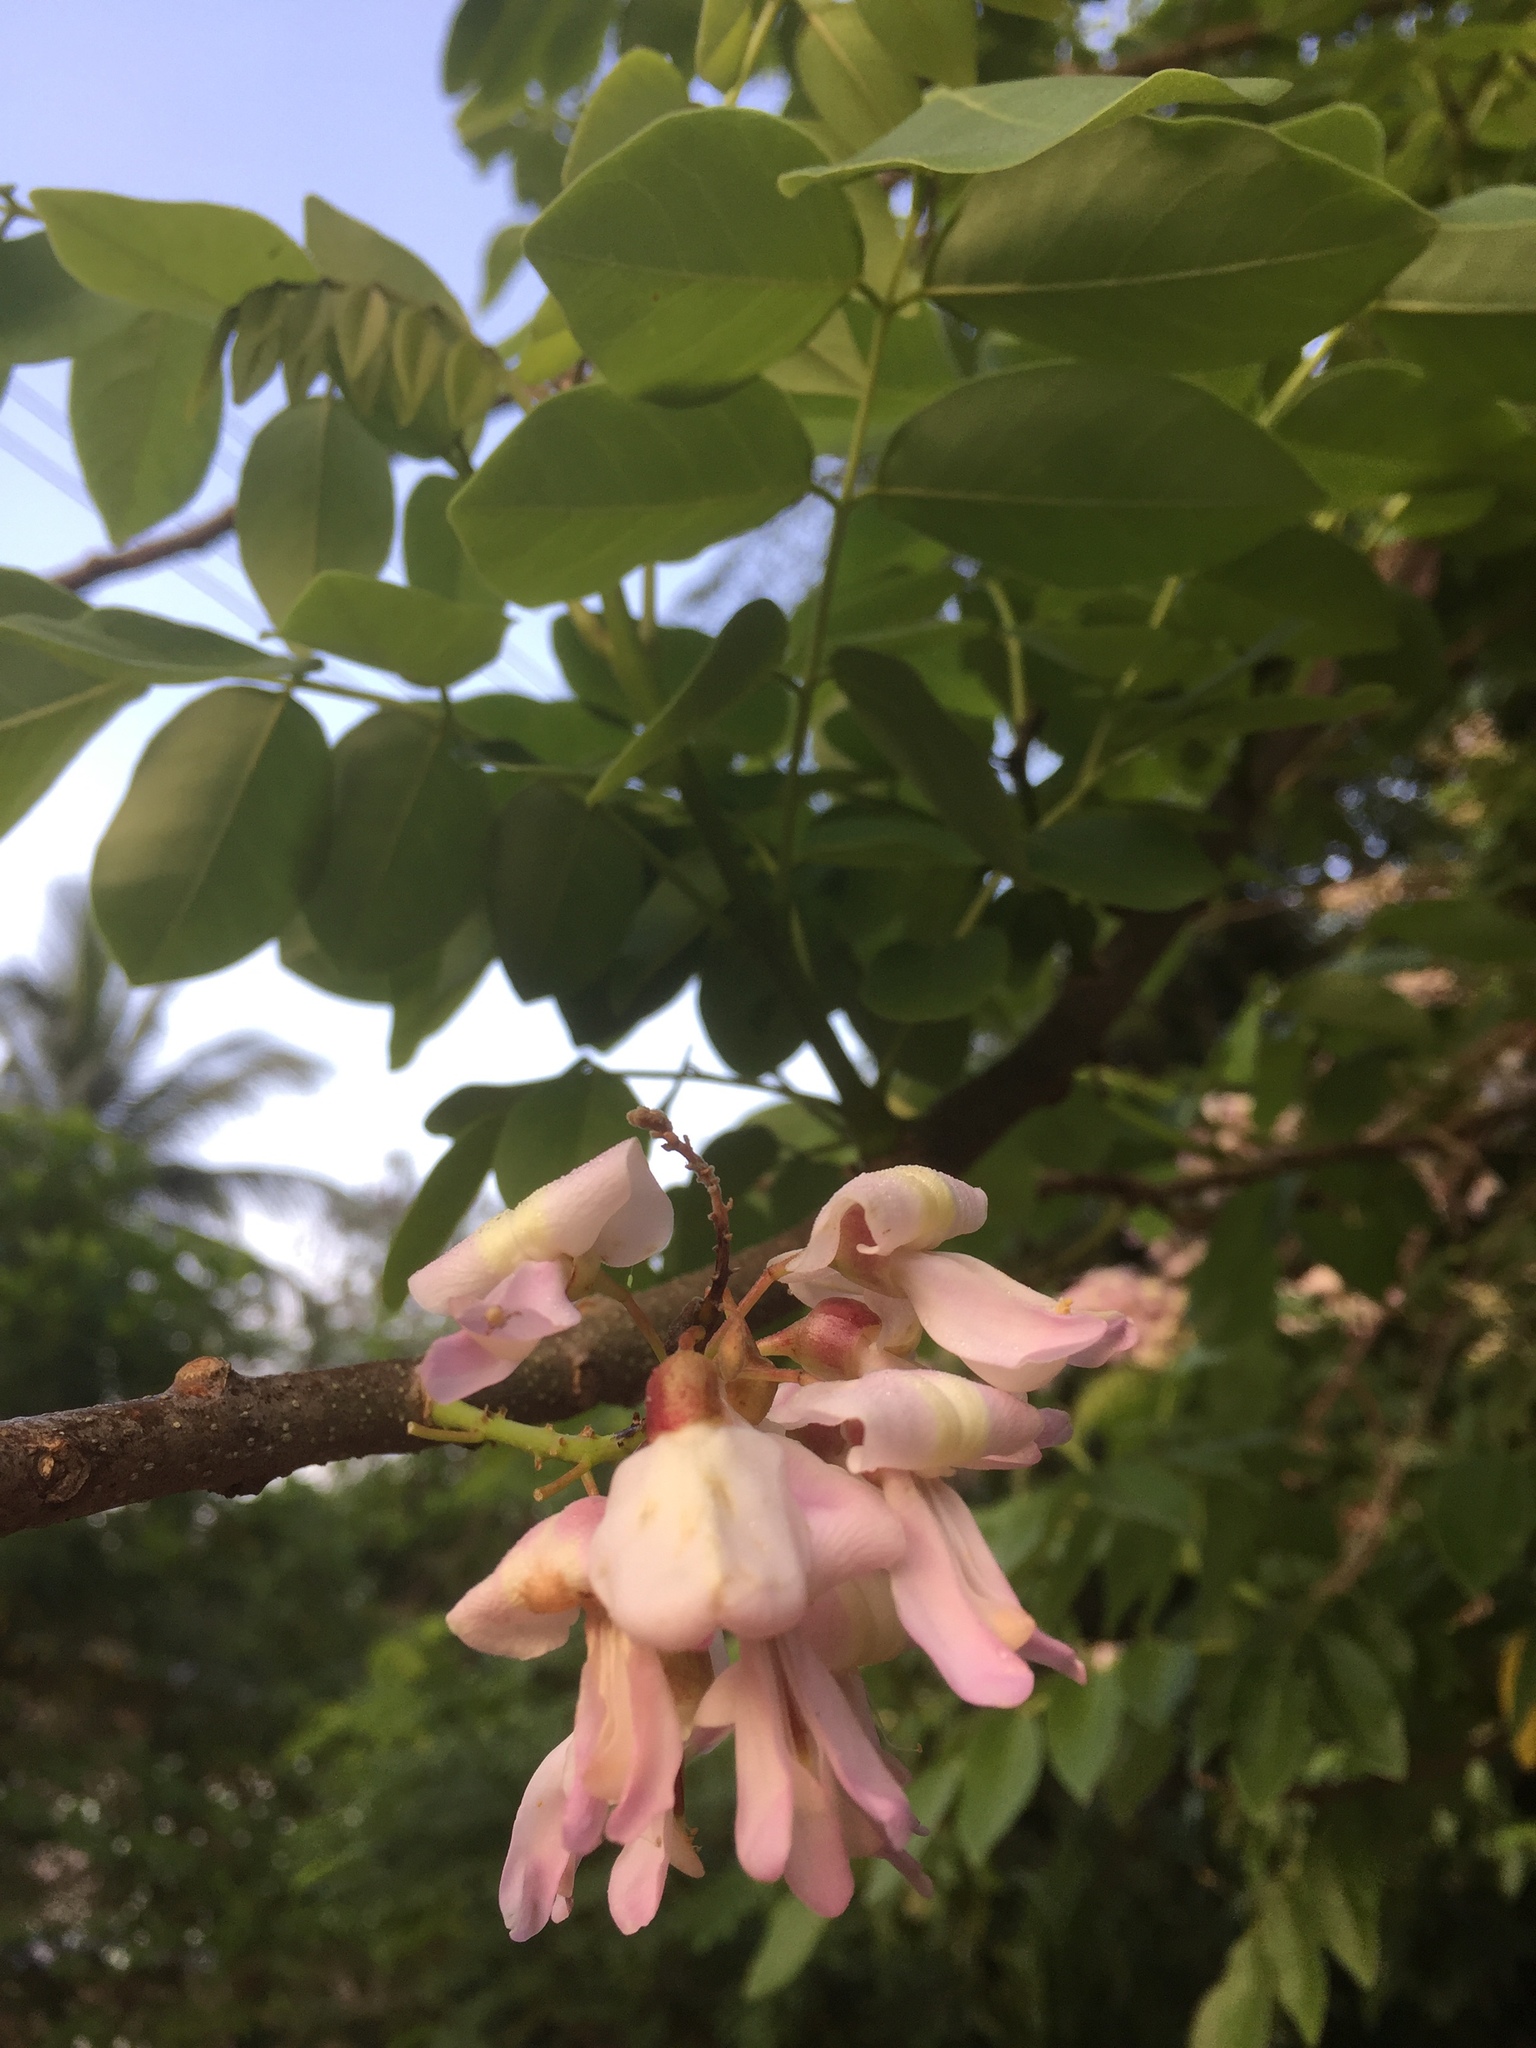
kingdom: Plantae
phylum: Tracheophyta
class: Magnoliopsida
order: Fabales
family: Fabaceae
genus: Gliricidia
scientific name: Gliricidia sepium
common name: Quickstick
